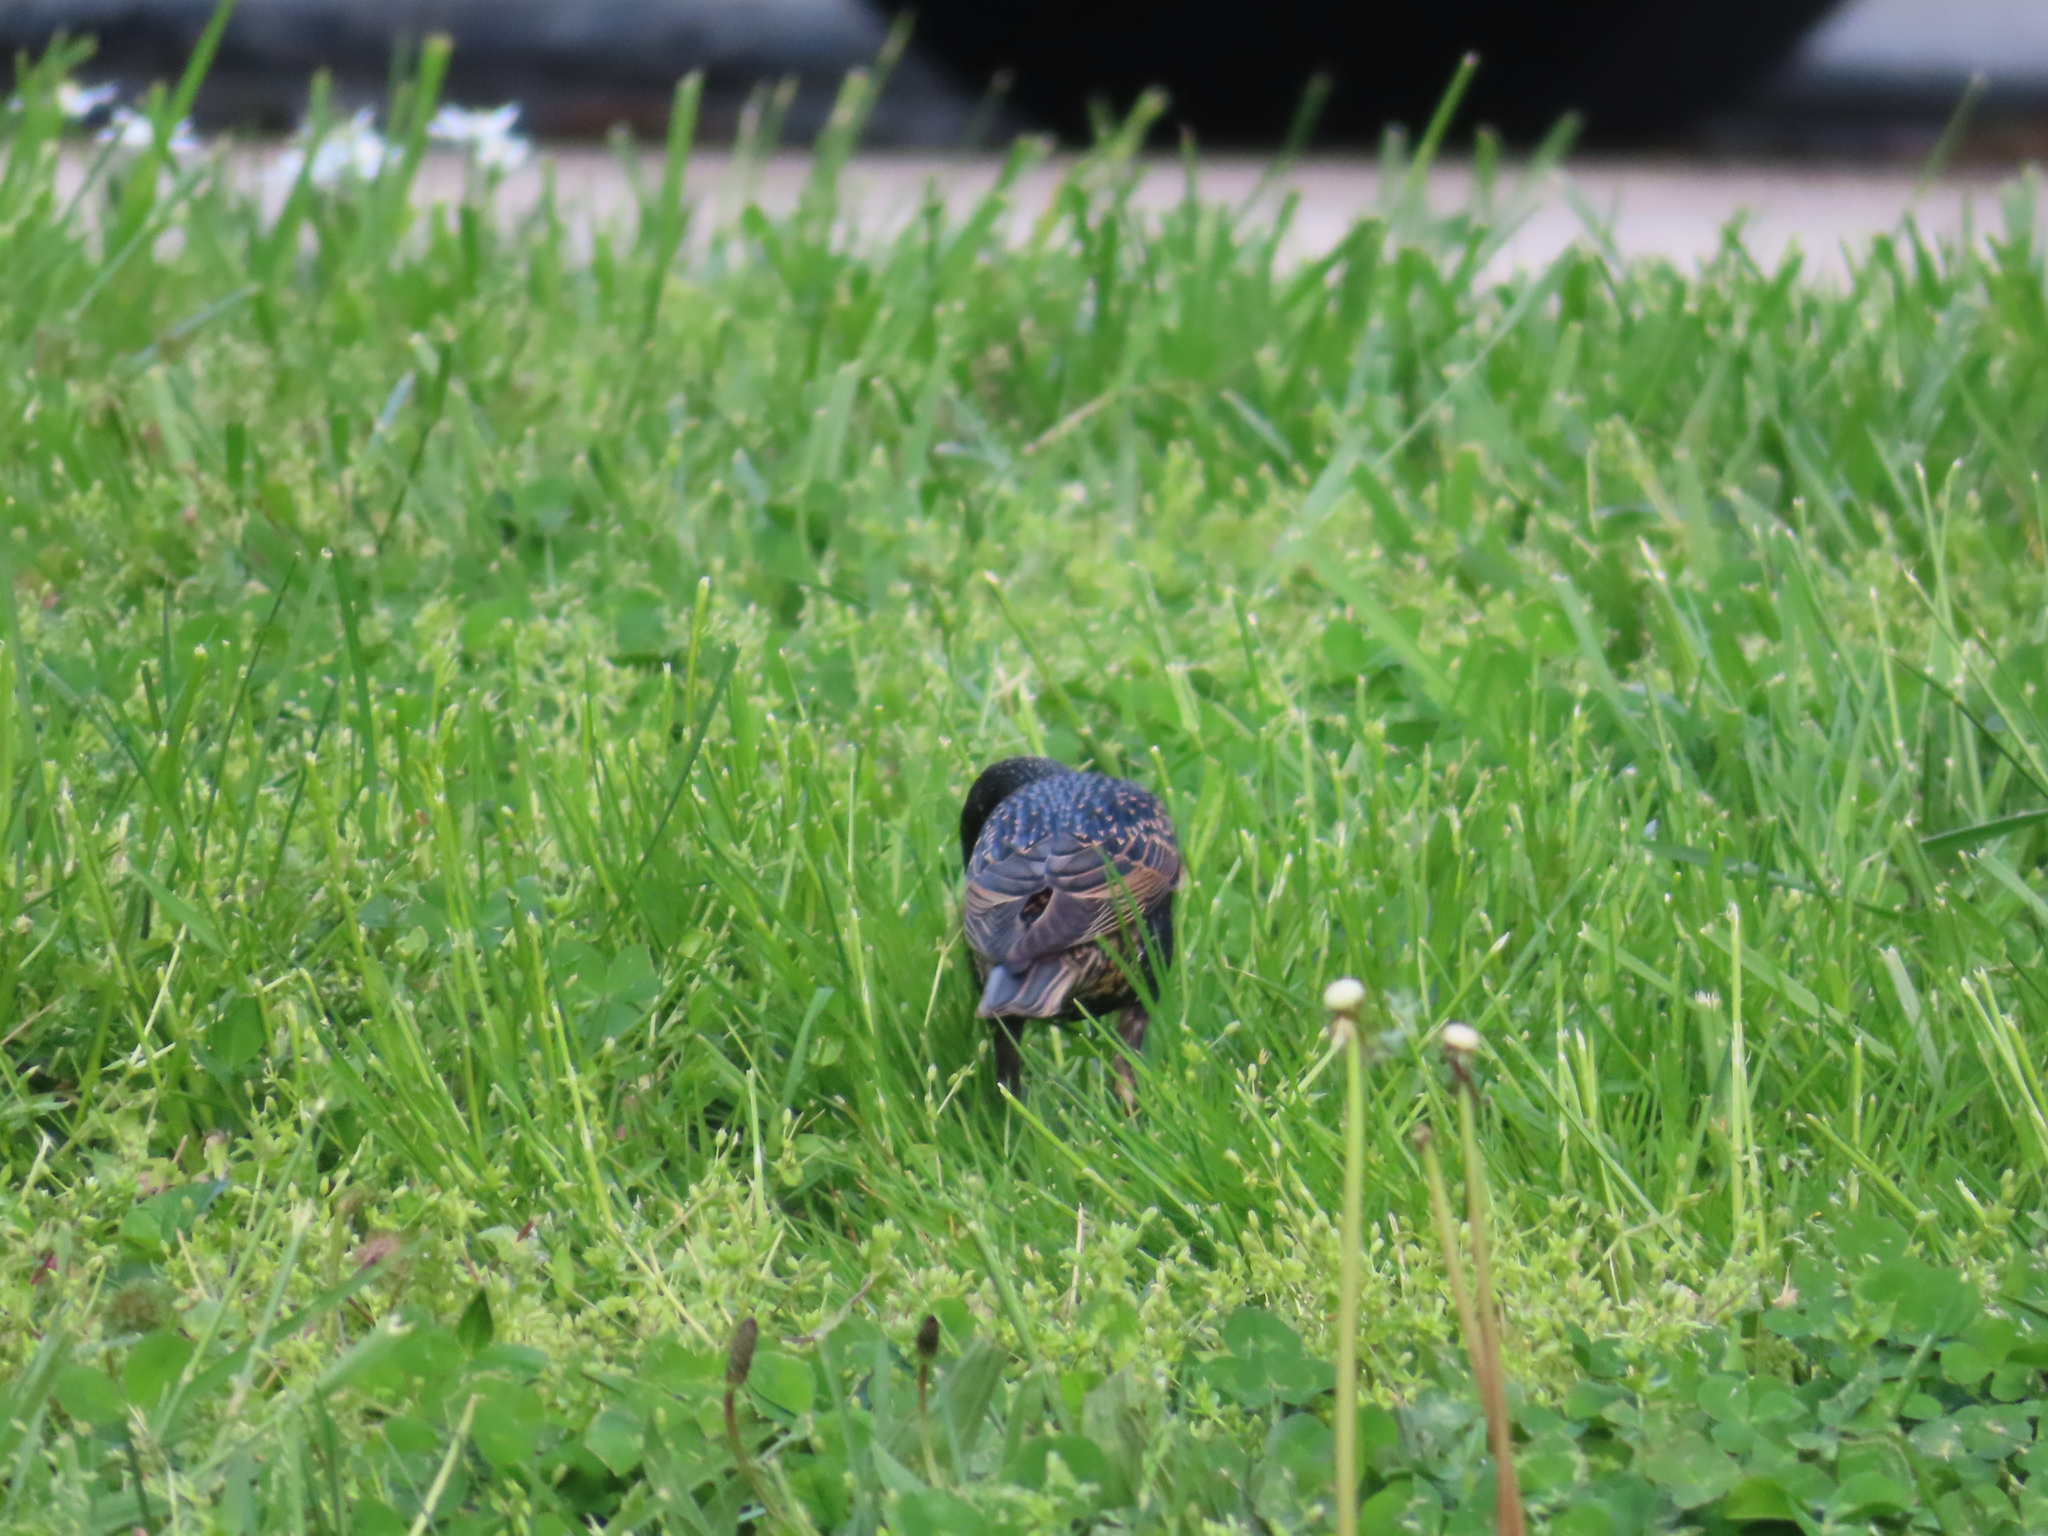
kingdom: Animalia
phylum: Chordata
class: Aves
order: Passeriformes
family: Sturnidae
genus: Sturnus
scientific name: Sturnus vulgaris
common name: Common starling
